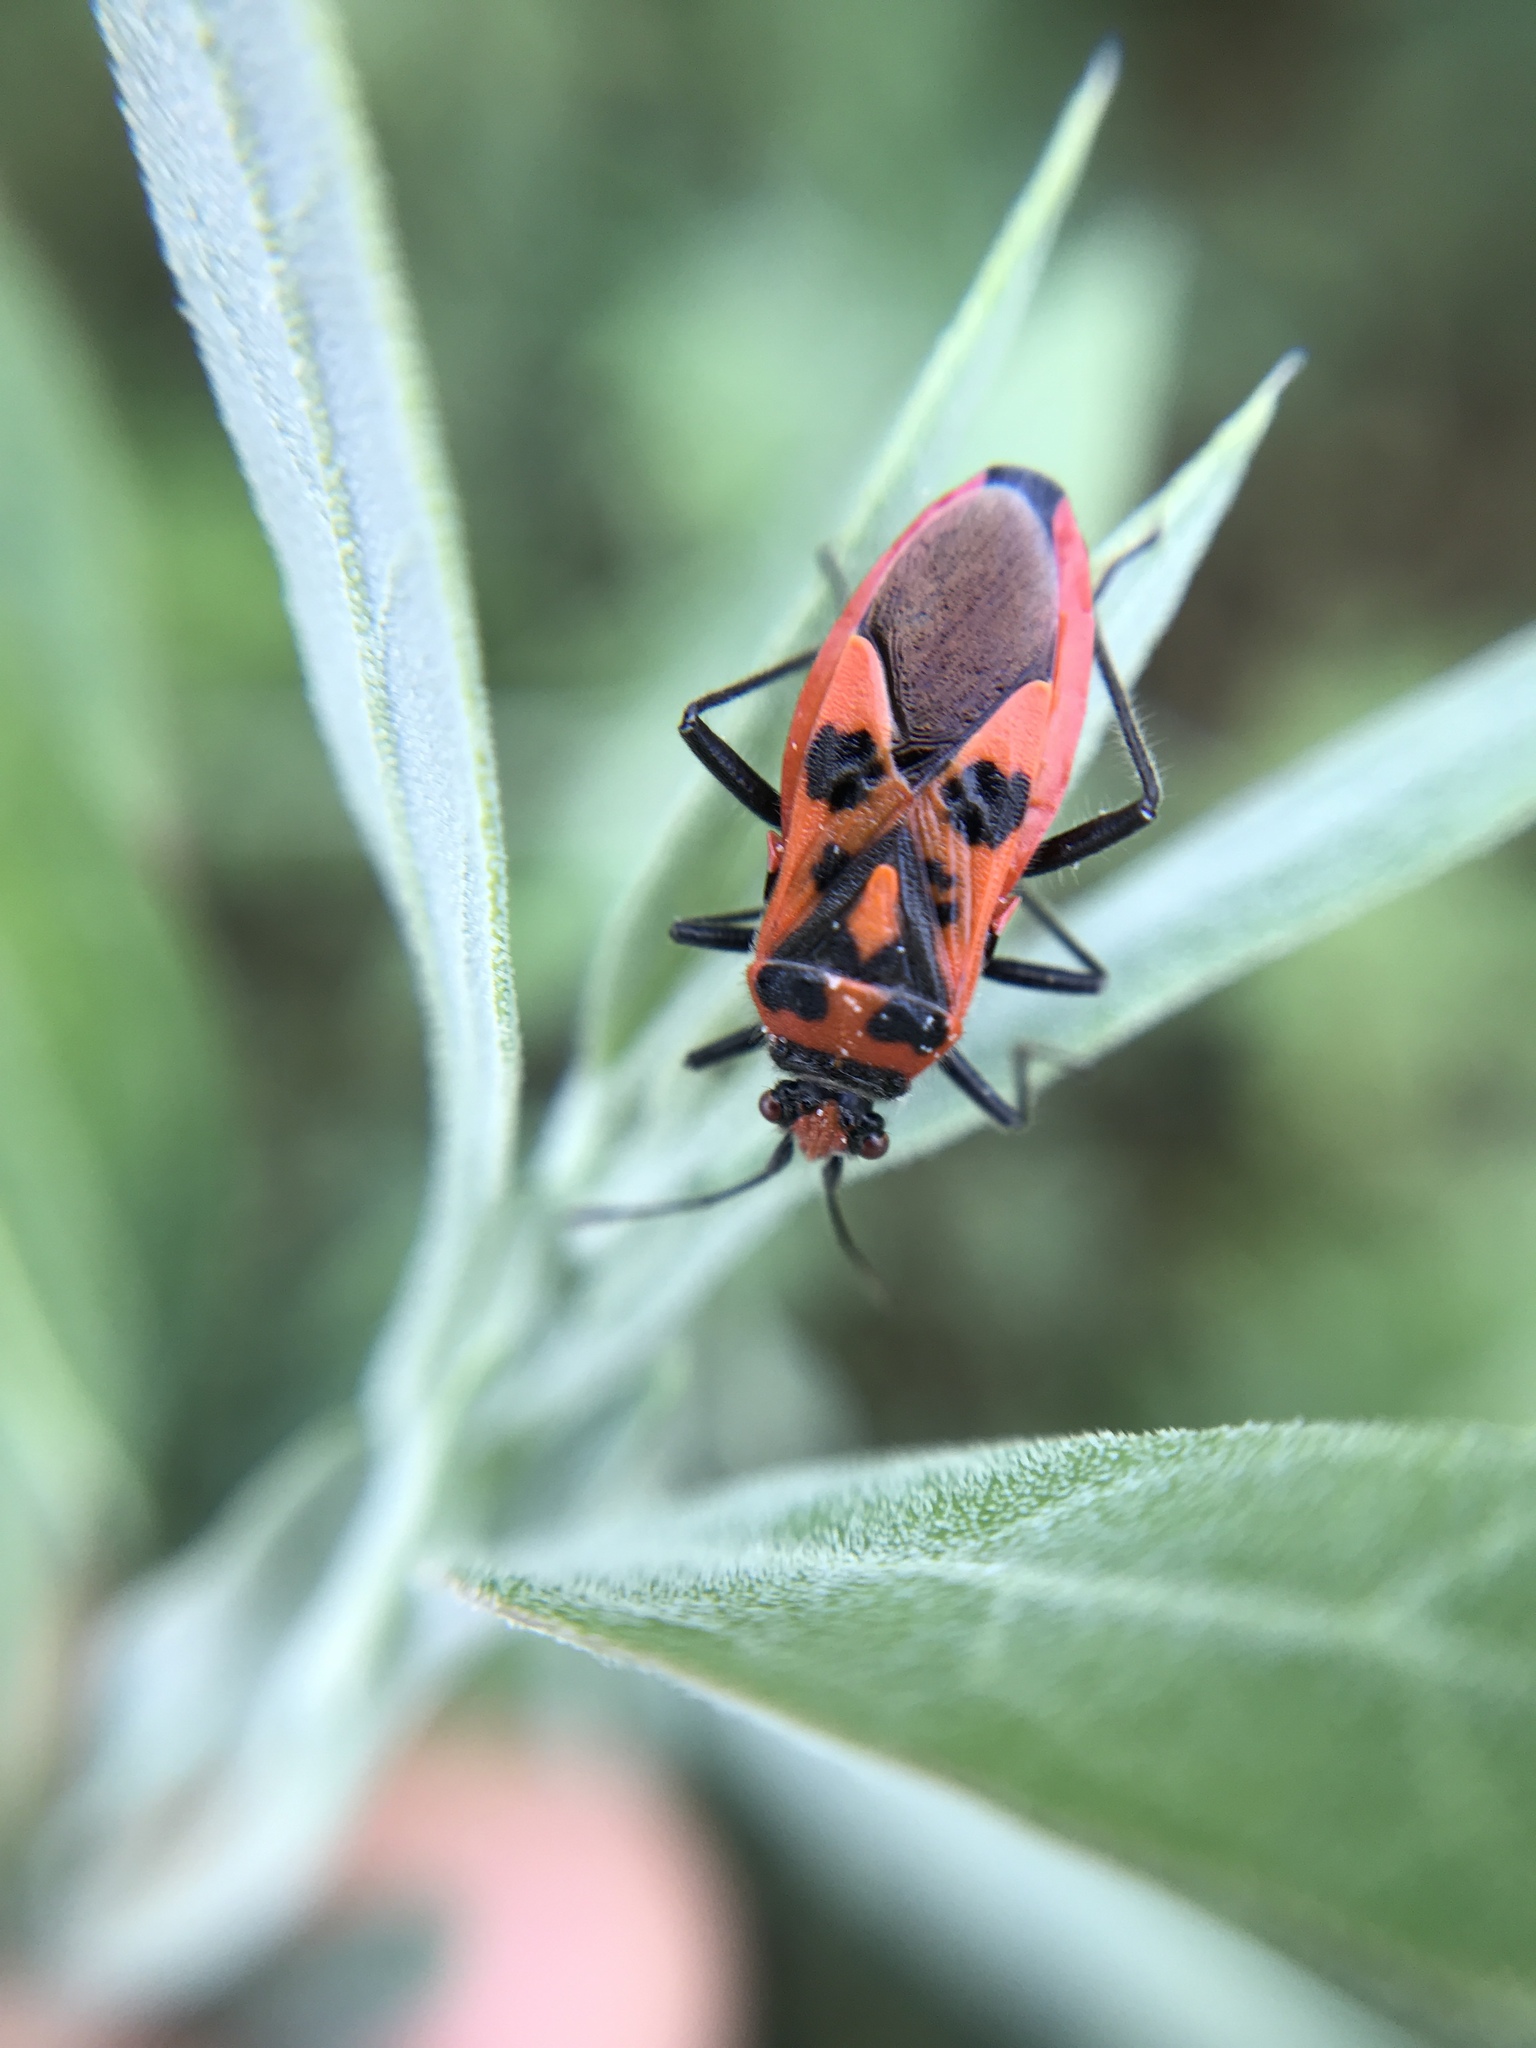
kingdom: Animalia
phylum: Arthropoda
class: Insecta
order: Hemiptera
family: Rhopalidae
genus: Corizus
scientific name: Corizus hyoscyami
